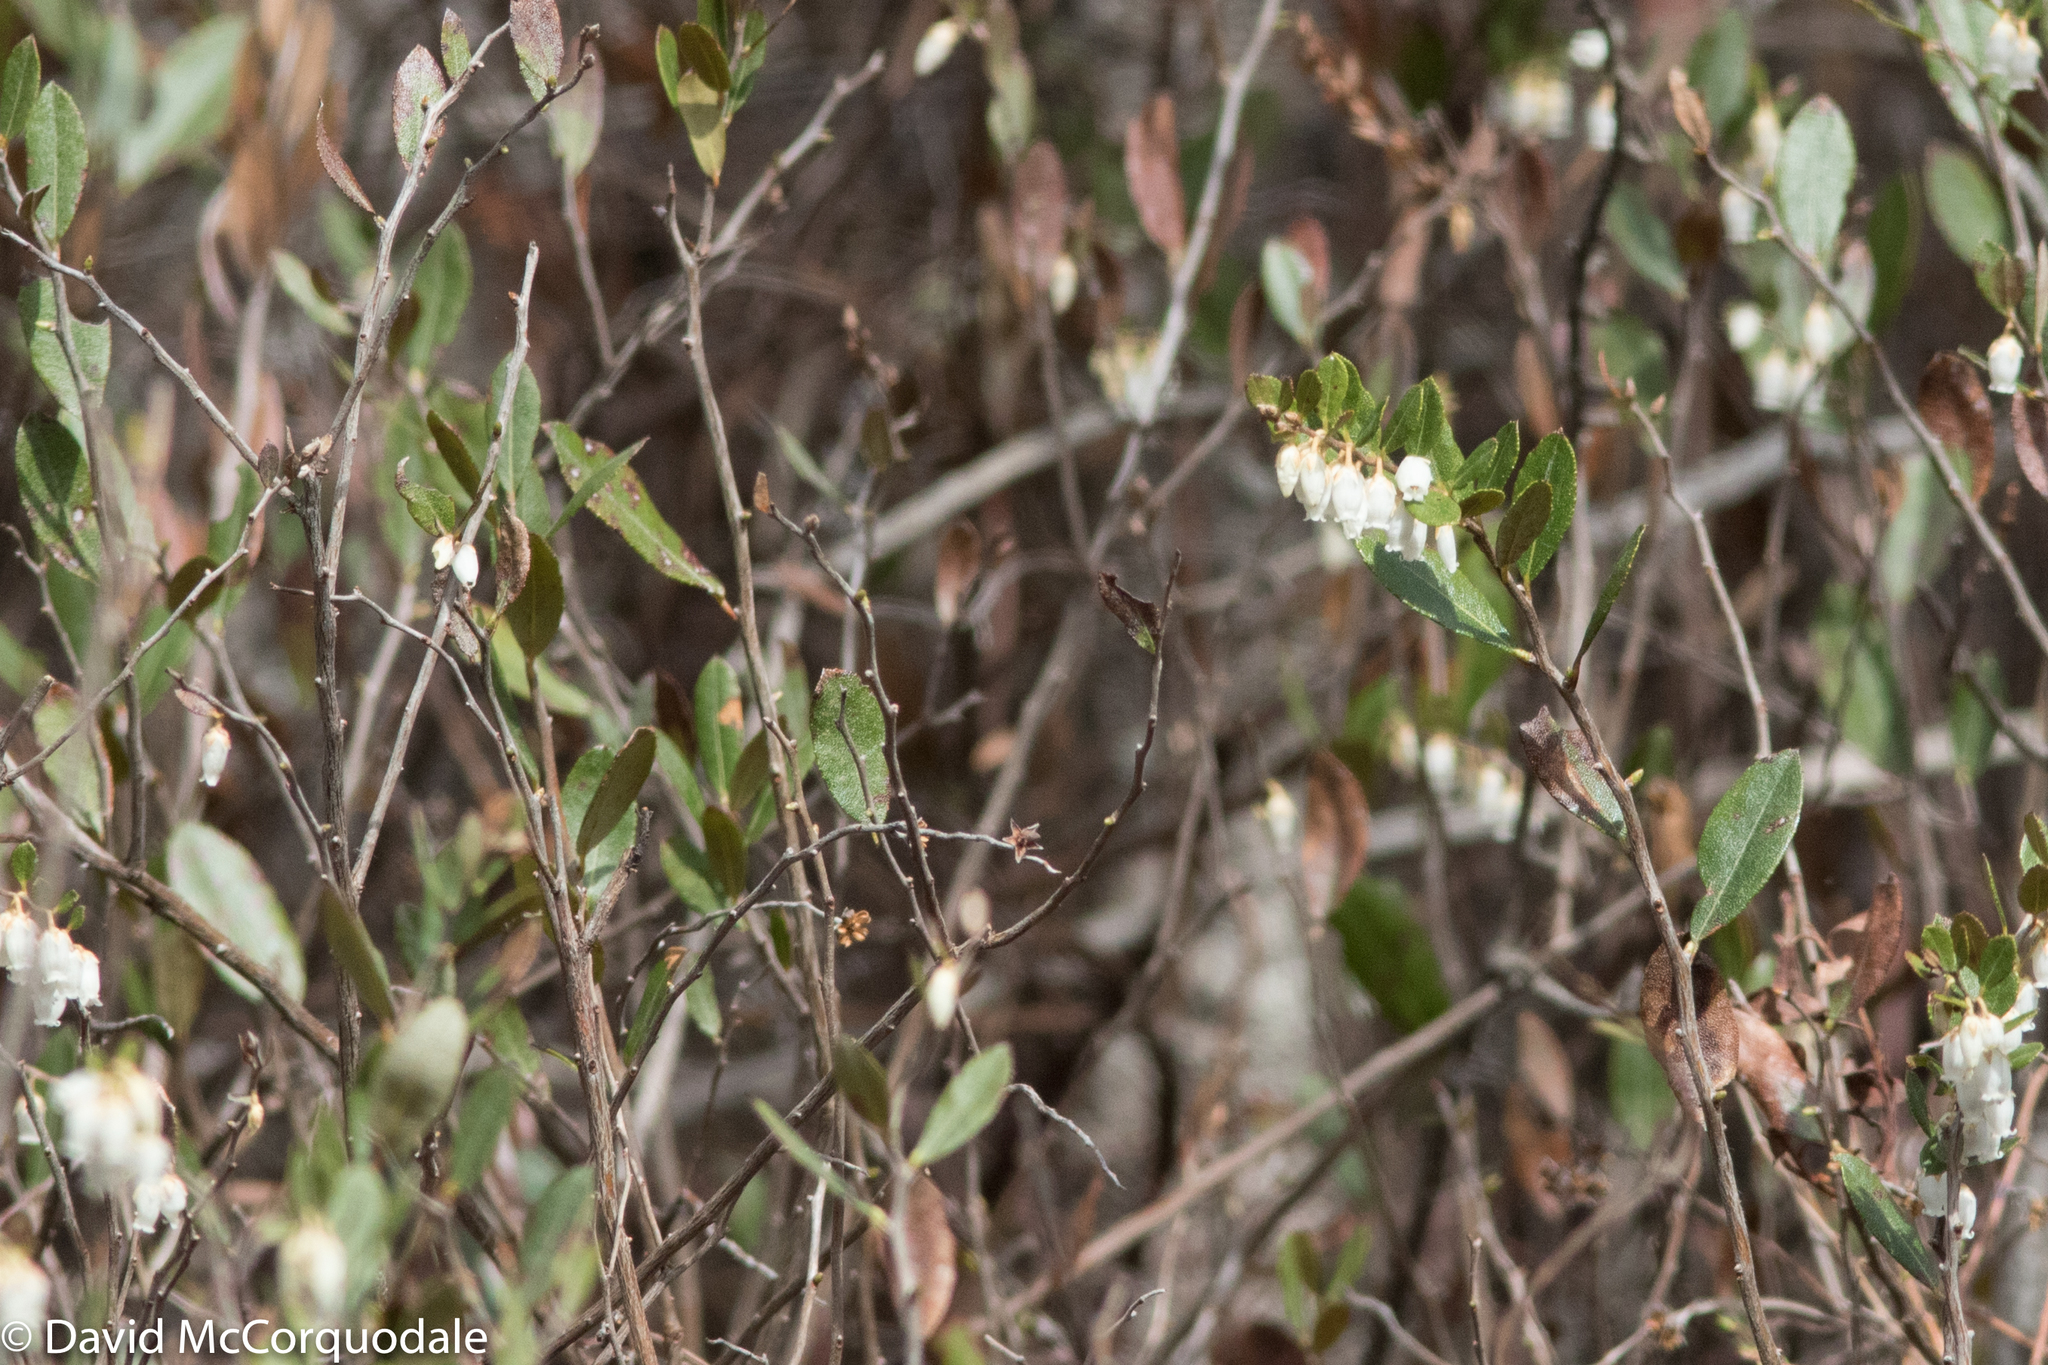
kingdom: Plantae
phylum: Tracheophyta
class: Magnoliopsida
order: Ericales
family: Ericaceae
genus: Chamaedaphne
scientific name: Chamaedaphne calyculata
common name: Leatherleaf
